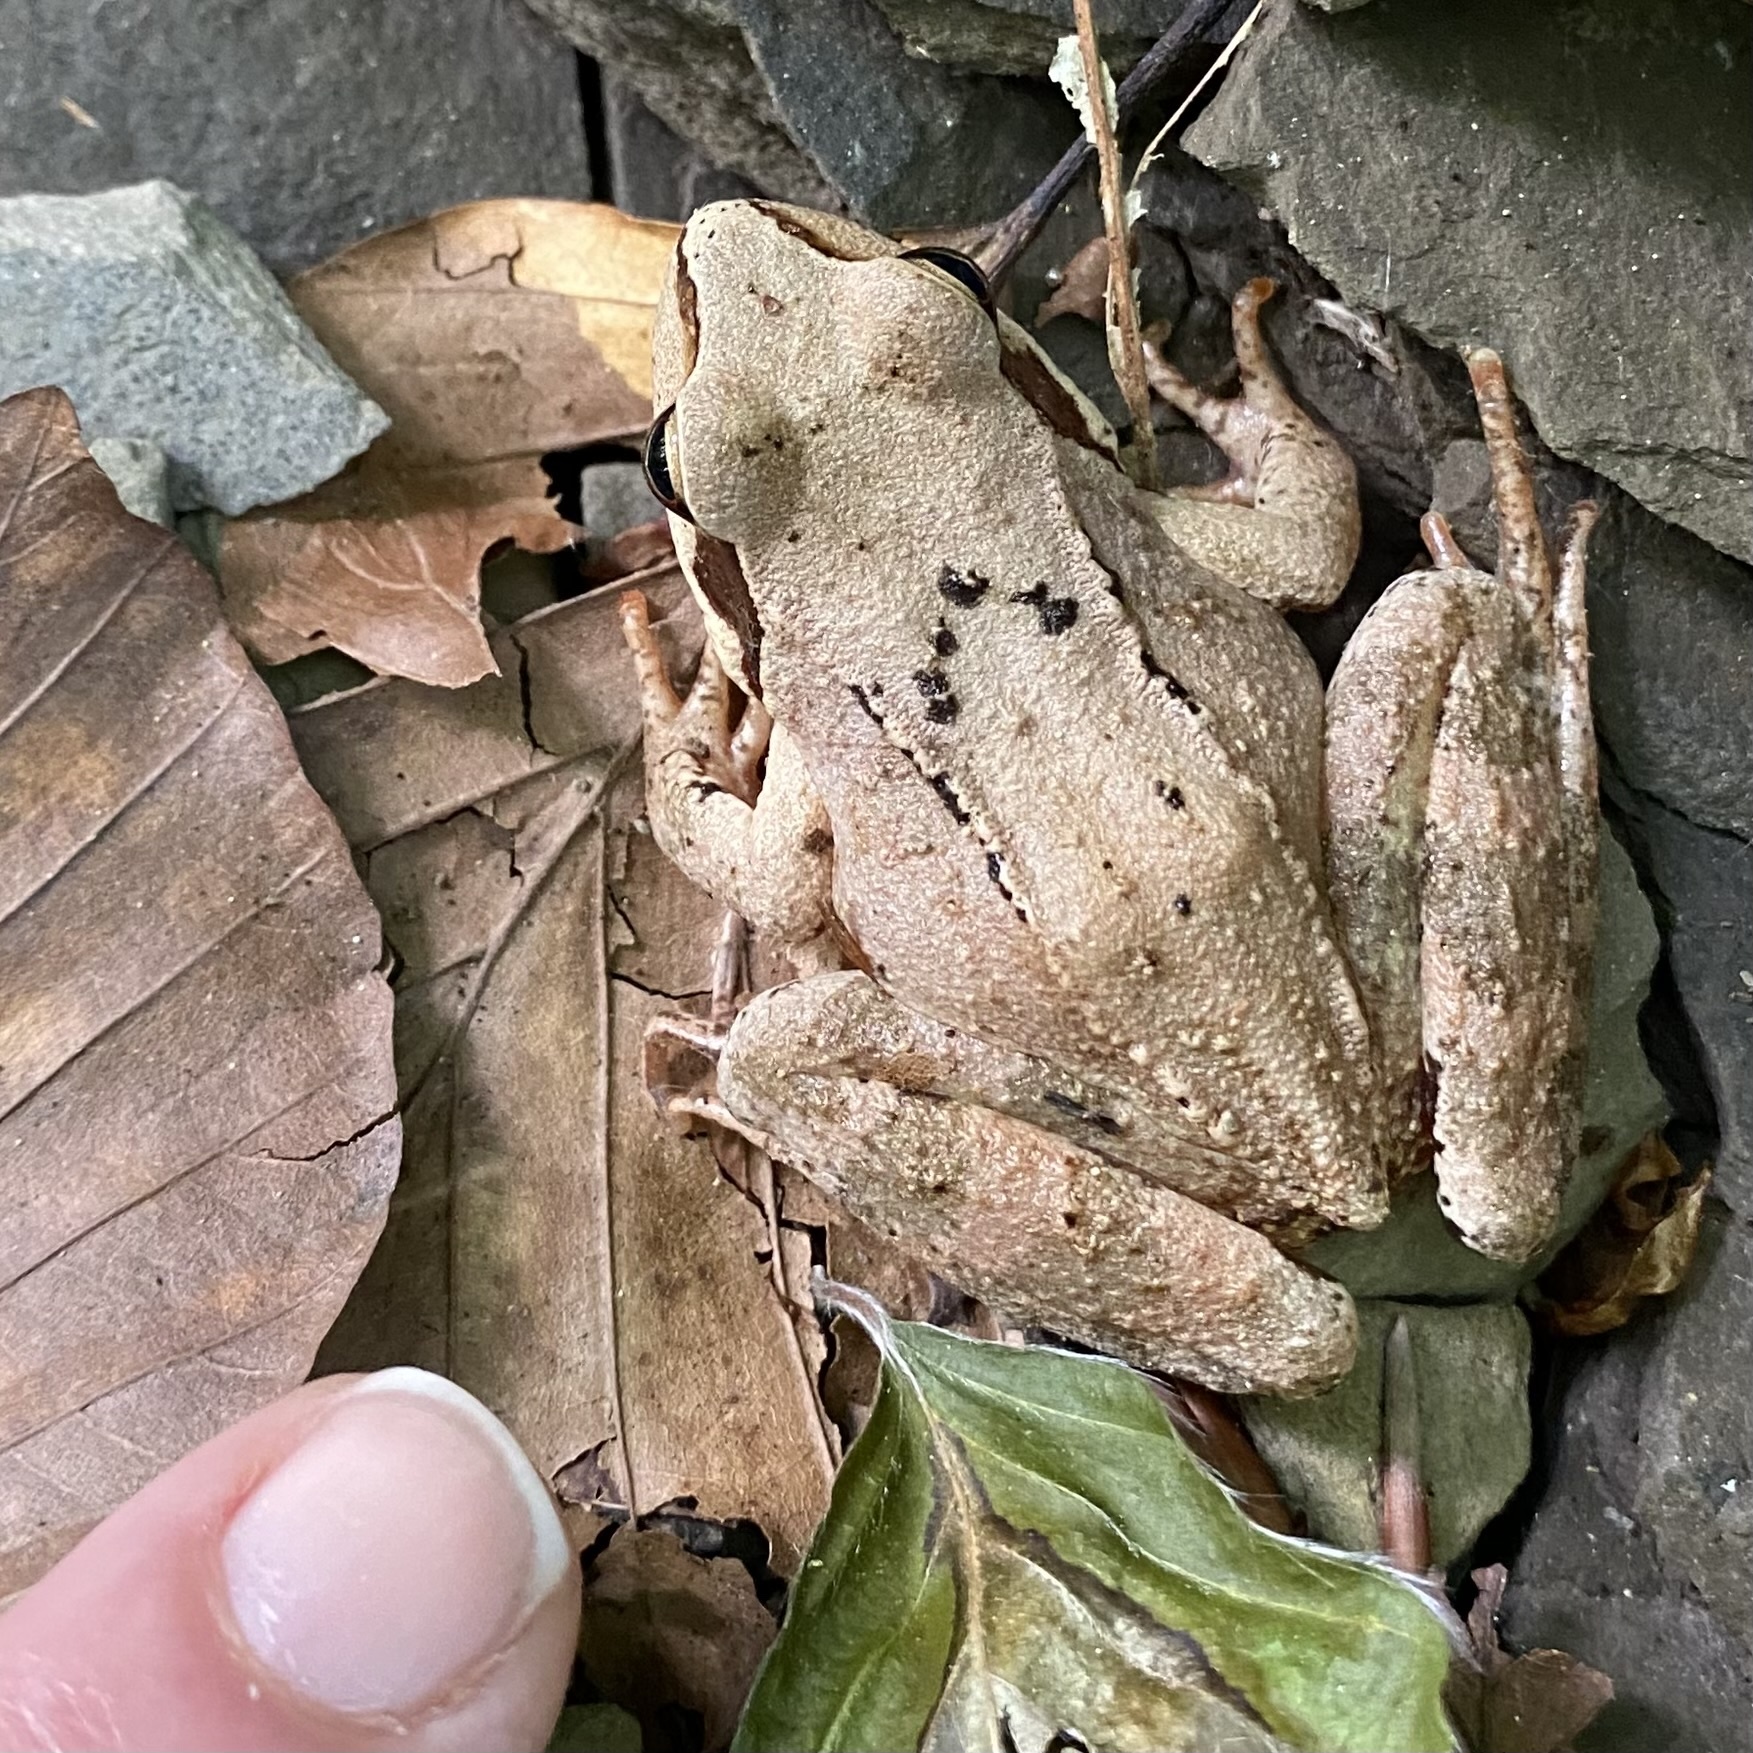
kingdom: Animalia
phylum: Chordata
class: Amphibia
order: Anura
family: Ranidae
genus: Rana
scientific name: Rana temporaria
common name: Common frog
